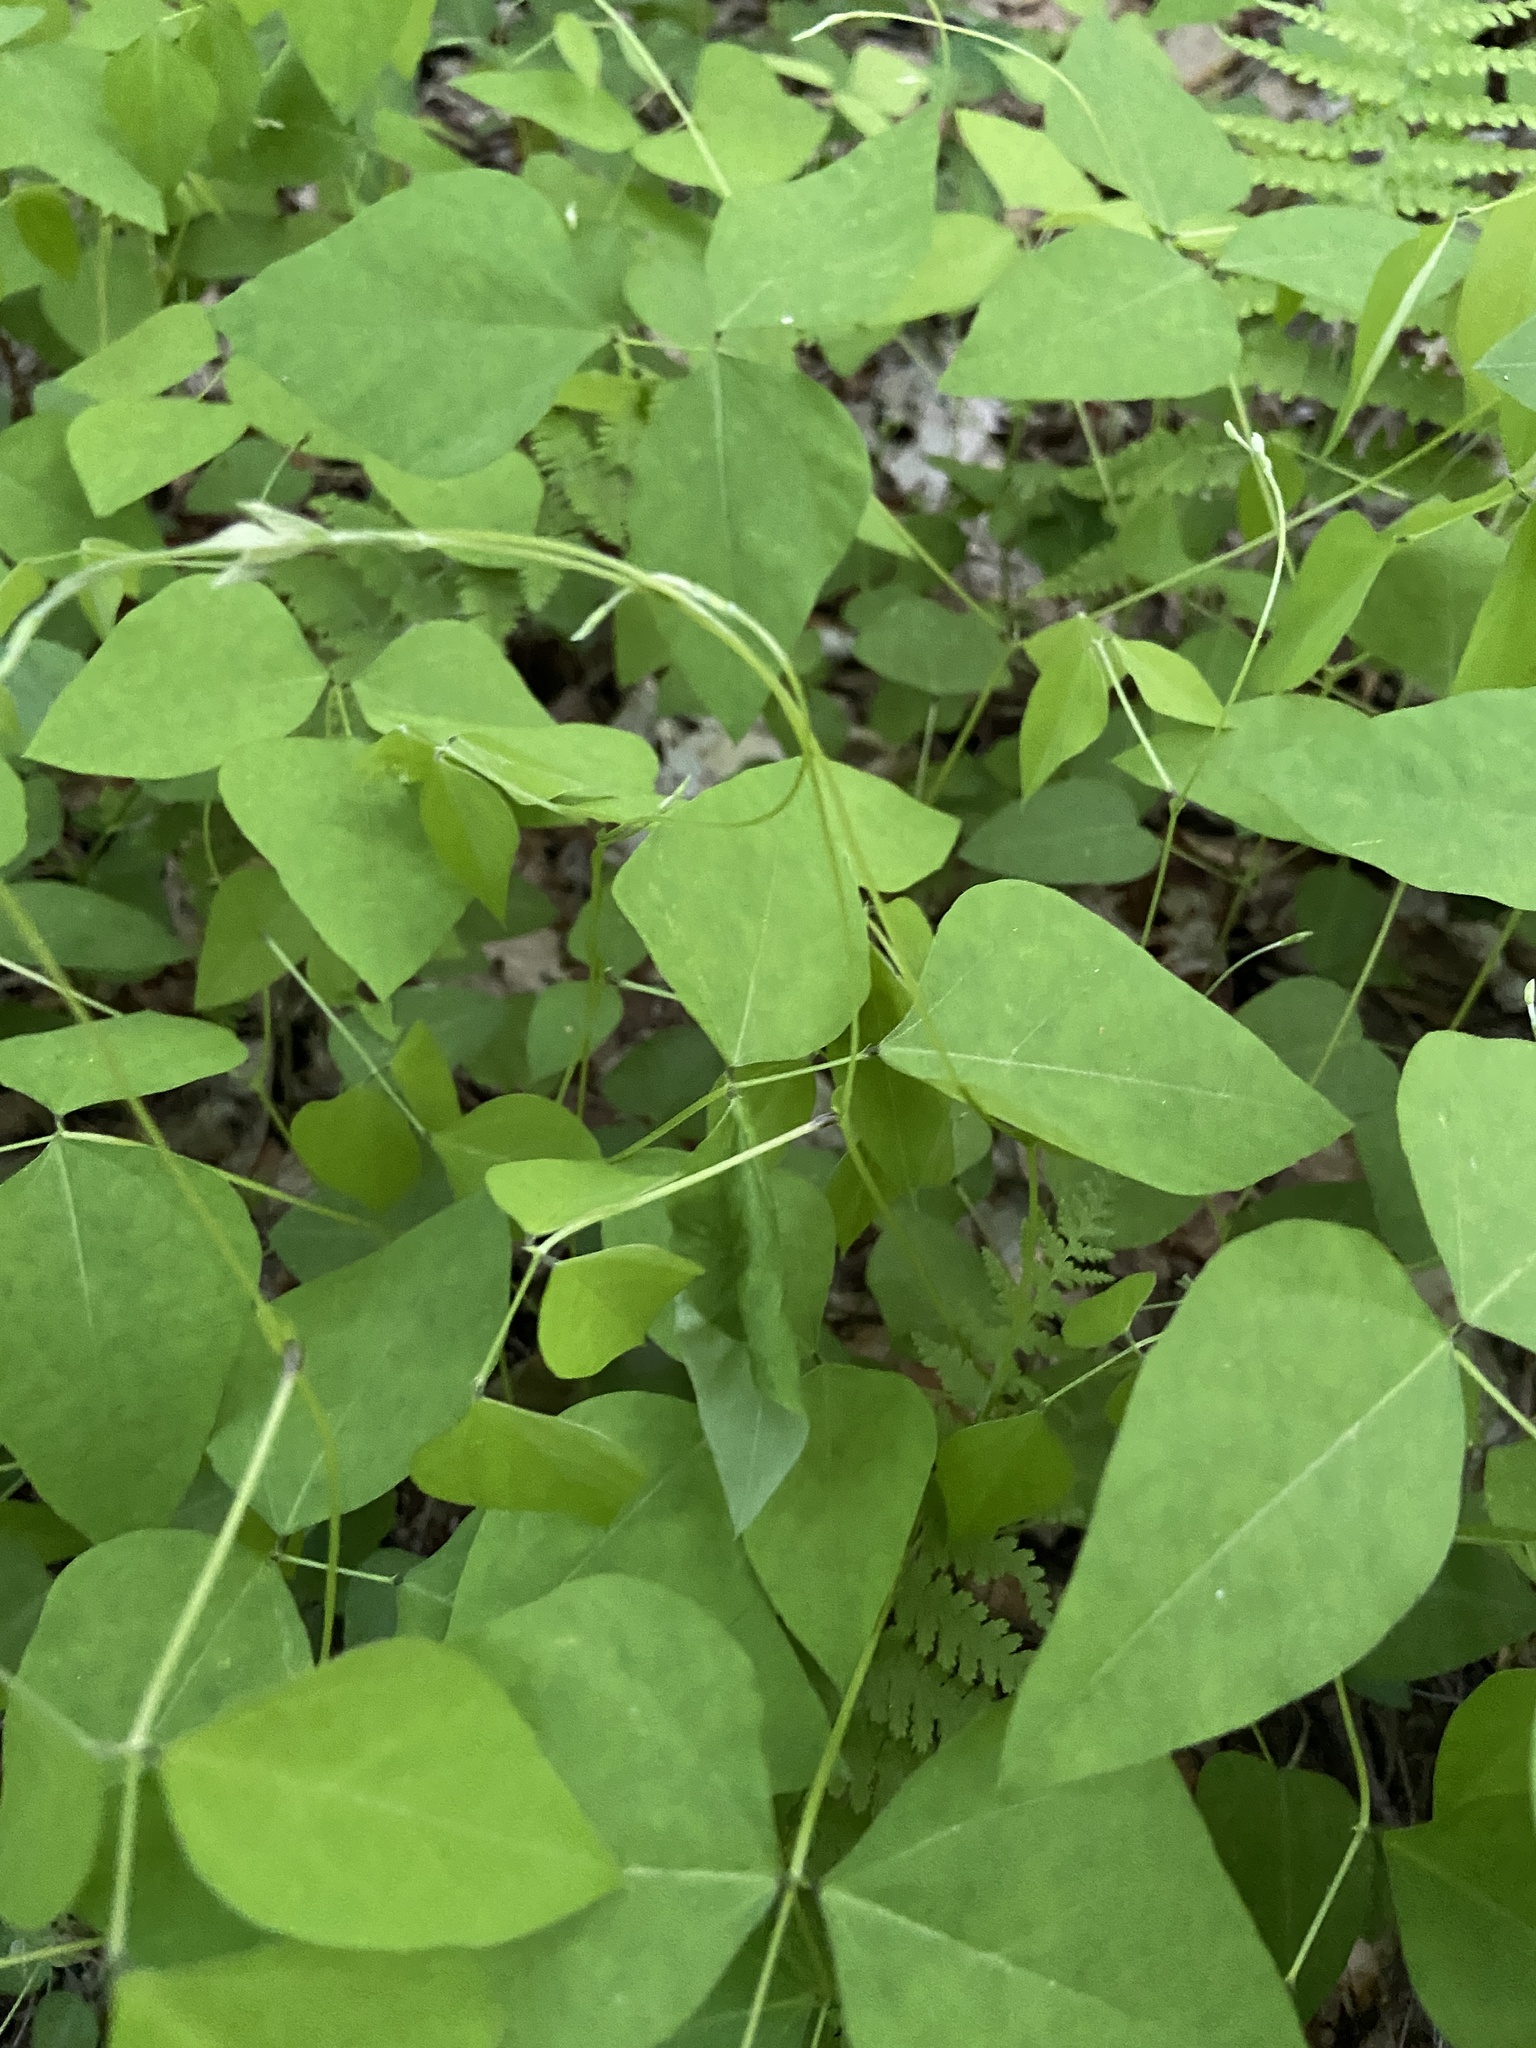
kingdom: Plantae
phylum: Tracheophyta
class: Magnoliopsida
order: Fabales
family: Fabaceae
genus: Amphicarpaea
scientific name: Amphicarpaea bracteata
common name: American hog peanut
